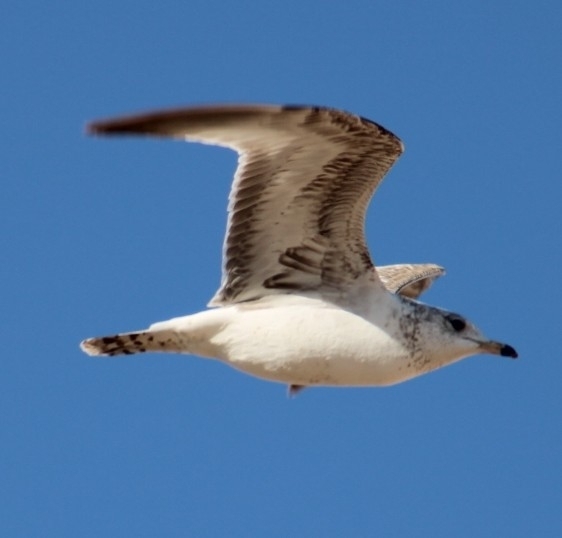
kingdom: Animalia
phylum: Chordata
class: Aves
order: Charadriiformes
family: Laridae
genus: Larus
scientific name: Larus delawarensis
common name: Ring-billed gull
